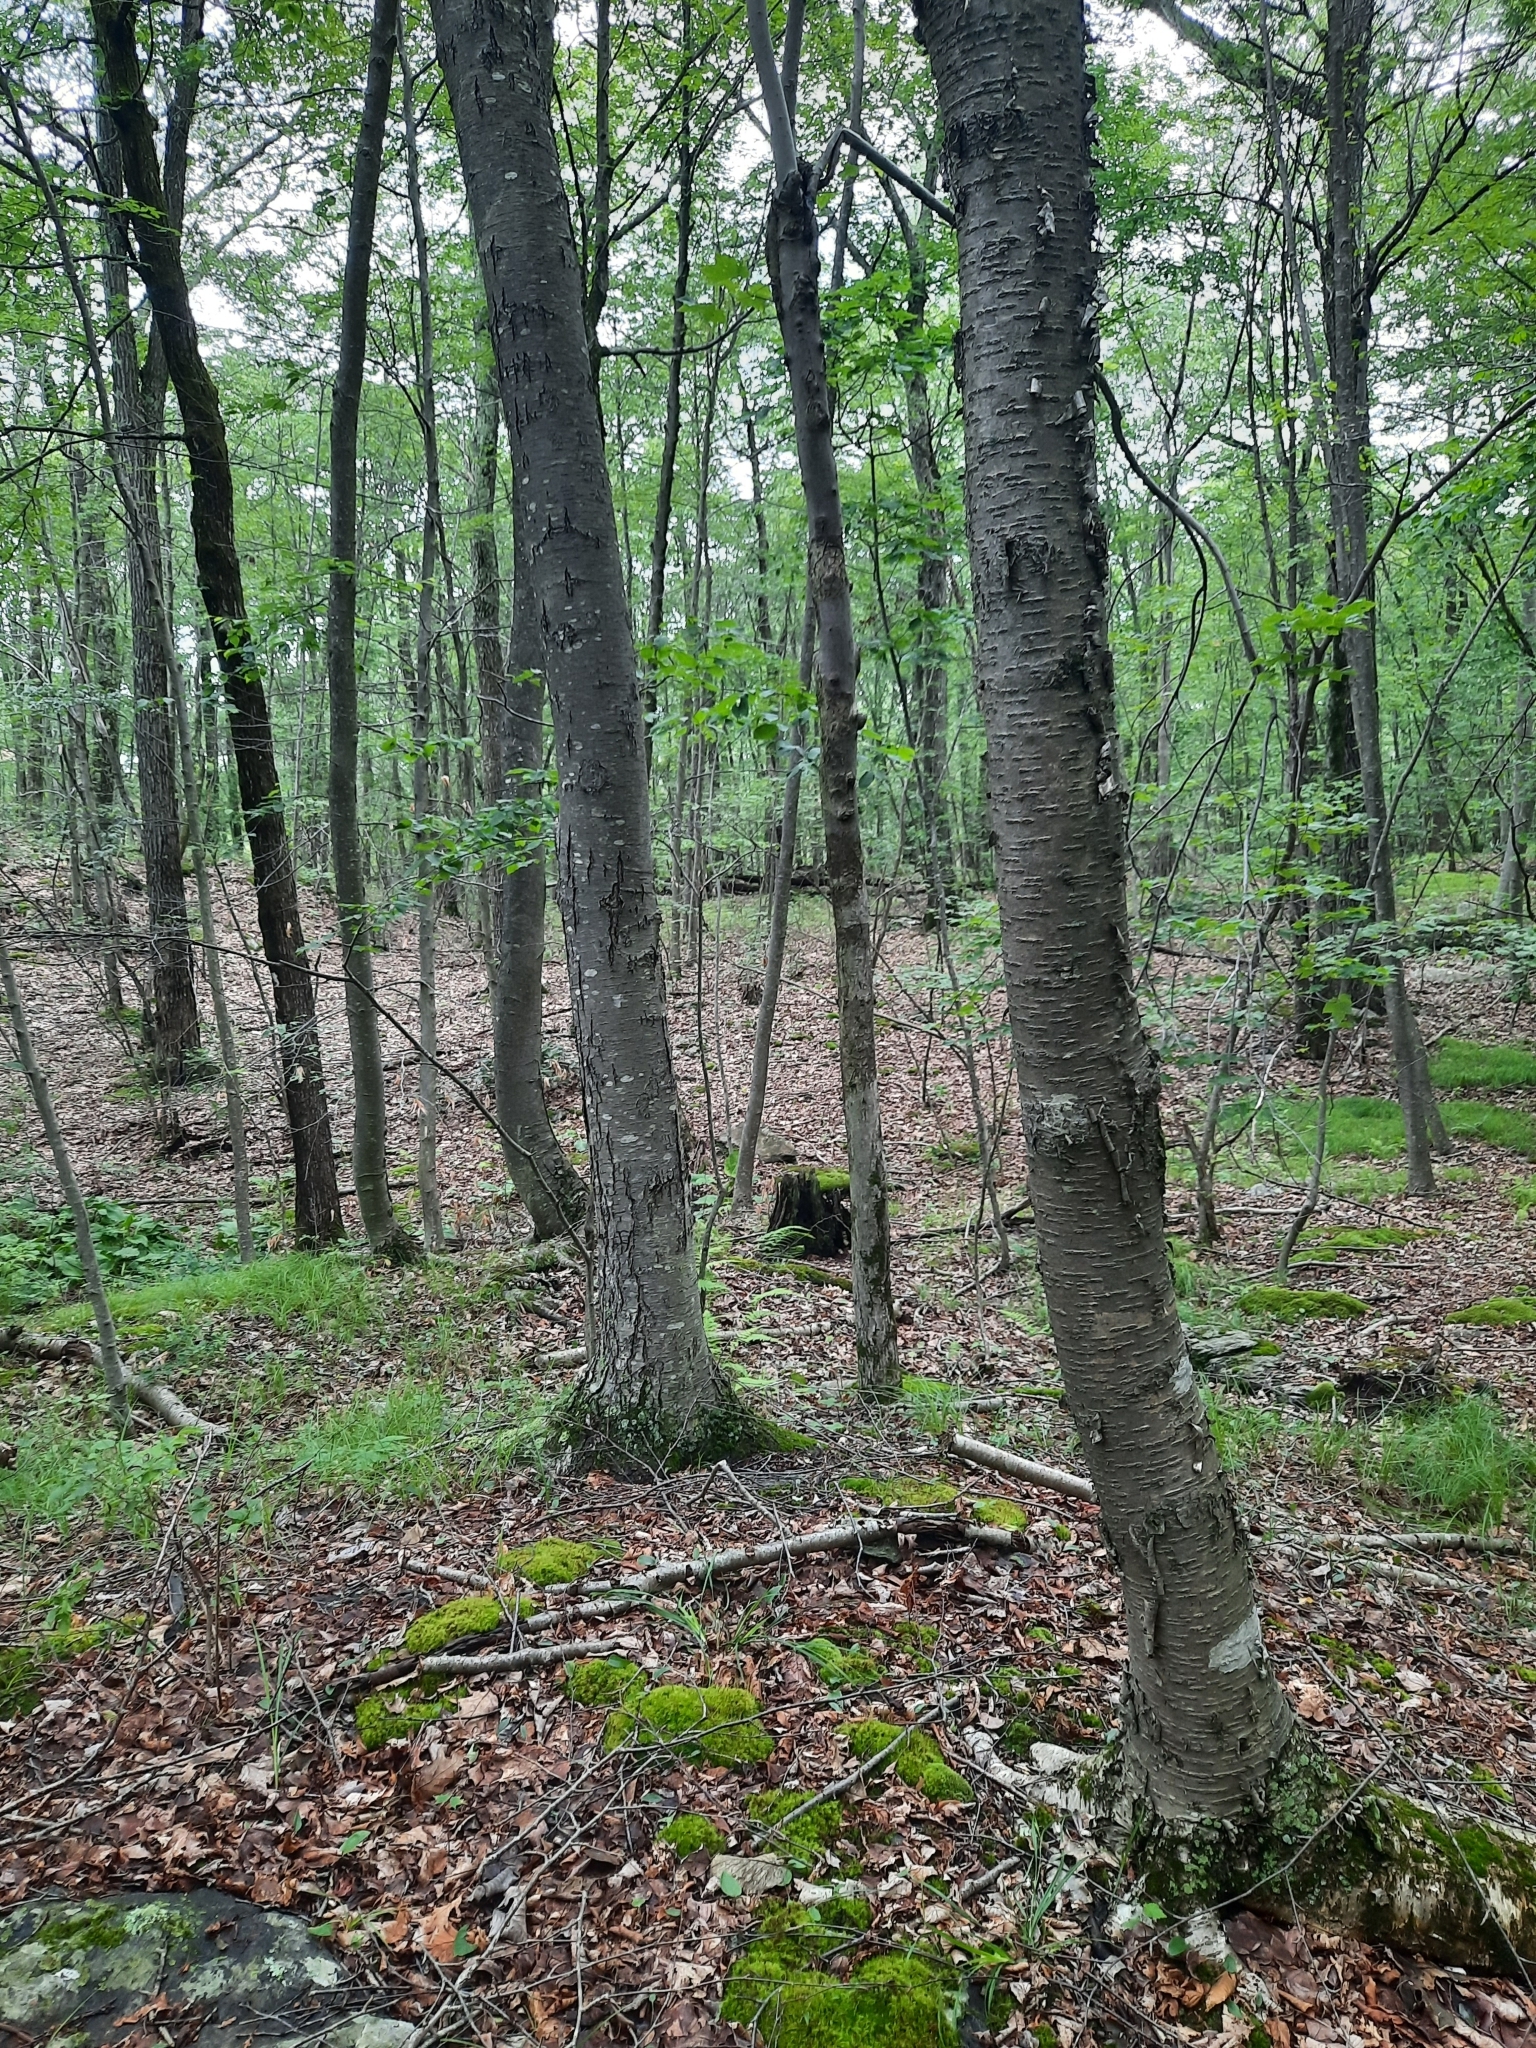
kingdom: Plantae
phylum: Tracheophyta
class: Magnoliopsida
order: Fagales
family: Betulaceae
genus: Betula
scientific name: Betula lenta
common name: Black birch
